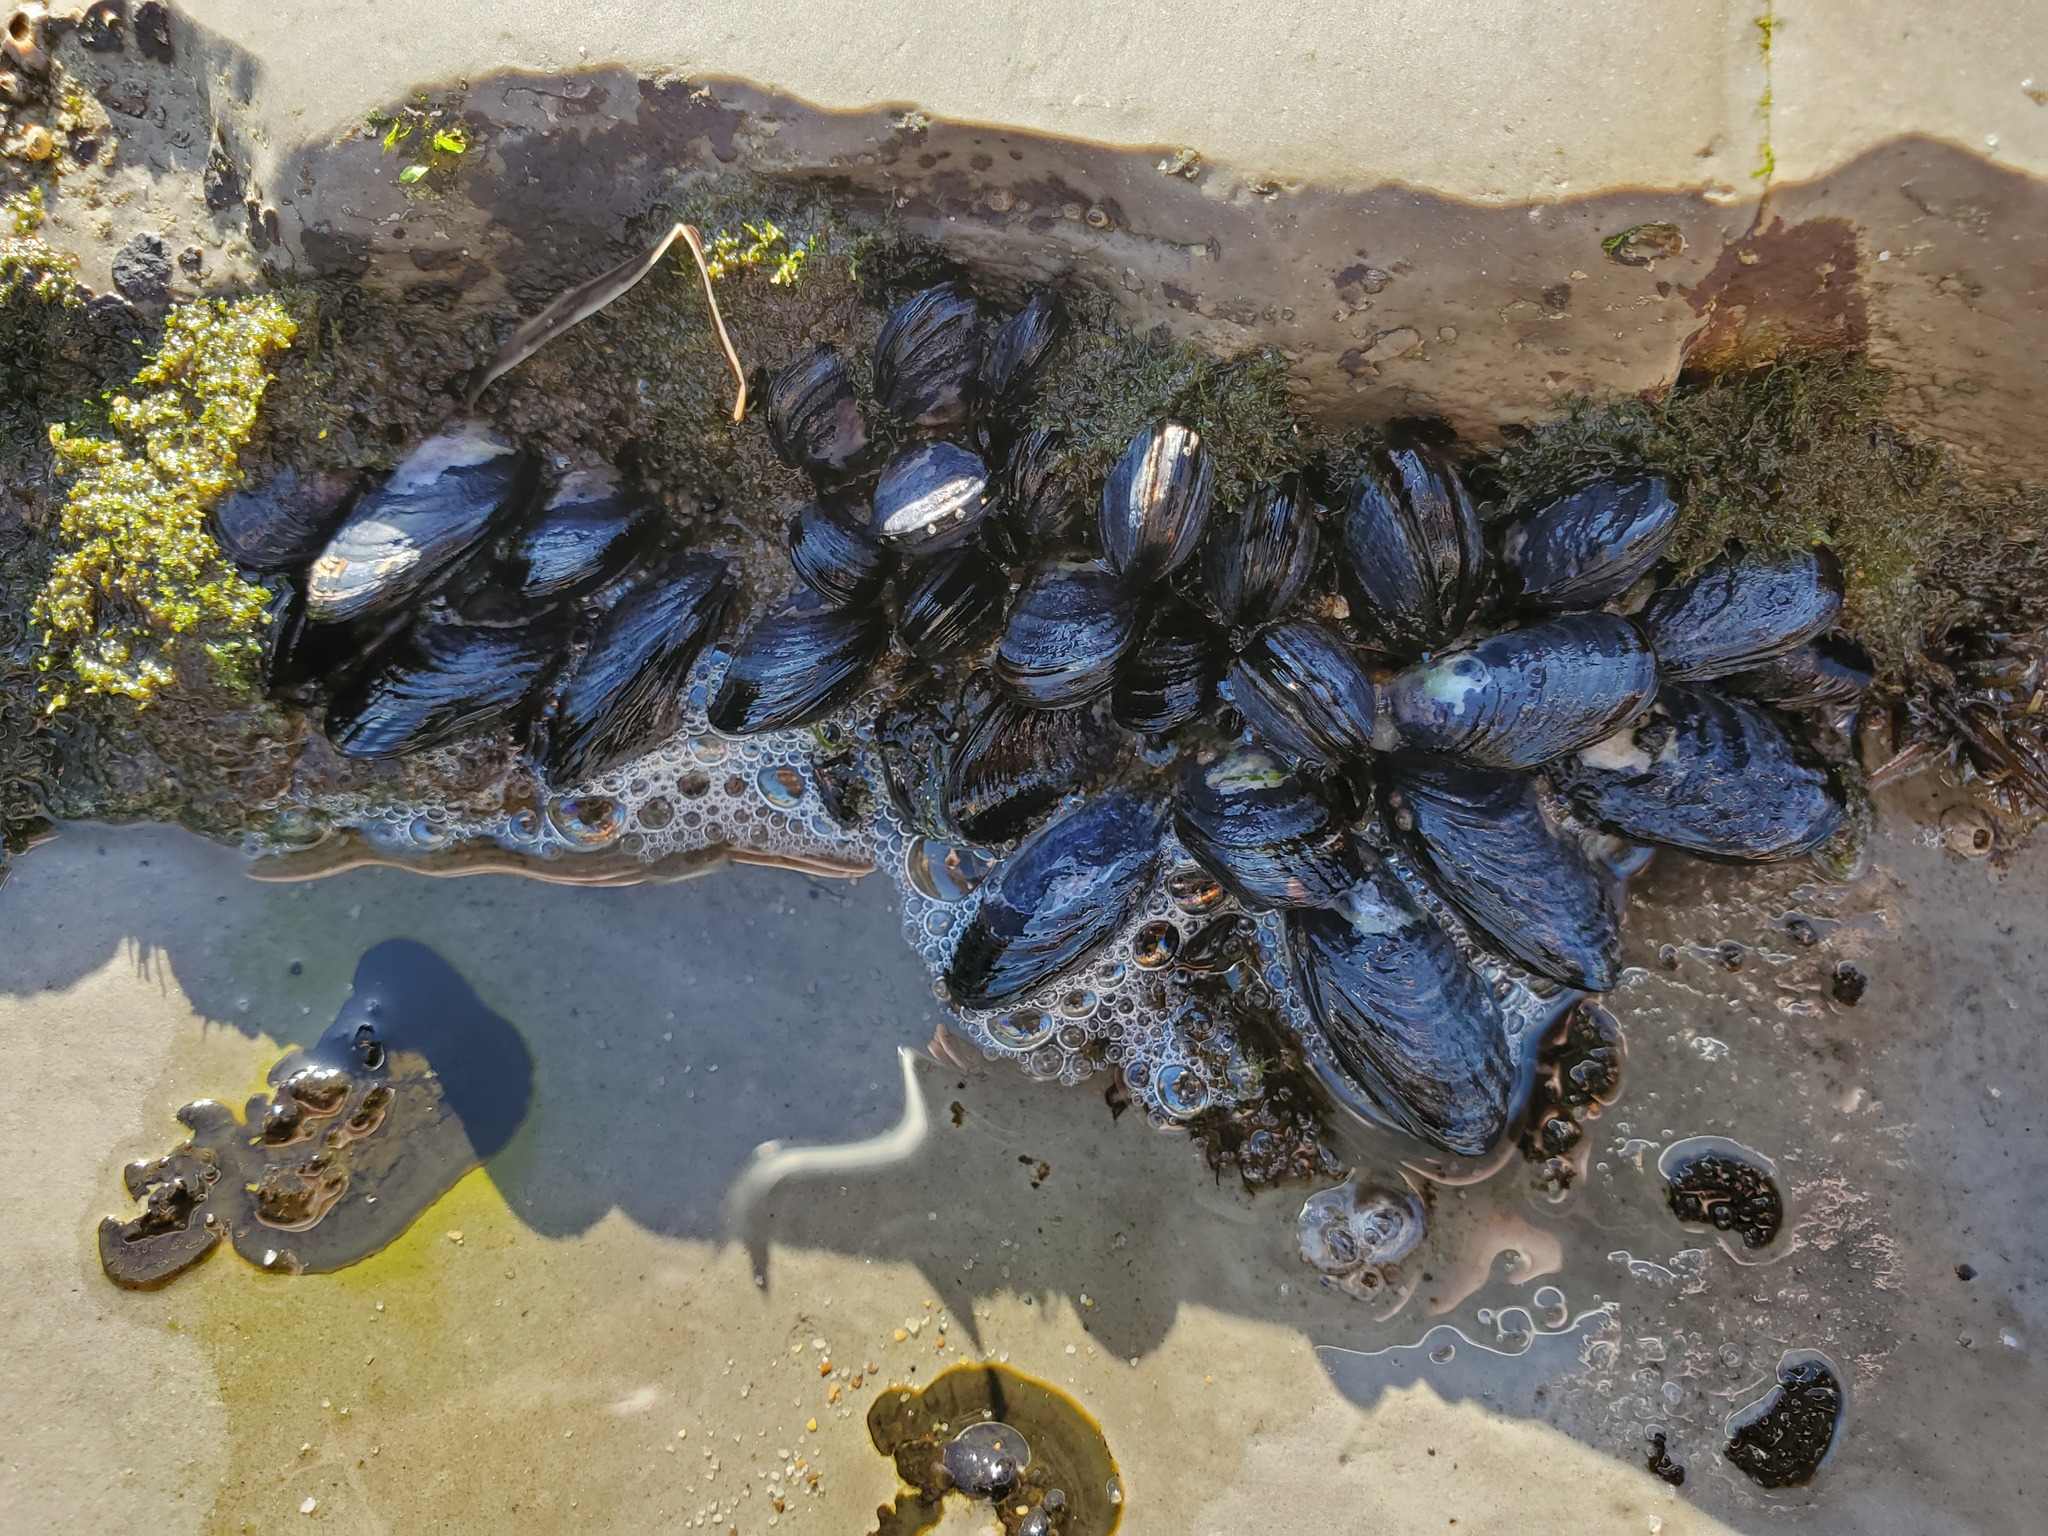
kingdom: Animalia
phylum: Mollusca
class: Bivalvia
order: Mytilida
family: Mytilidae
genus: Mytilus
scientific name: Mytilus californianus
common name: California mussel
